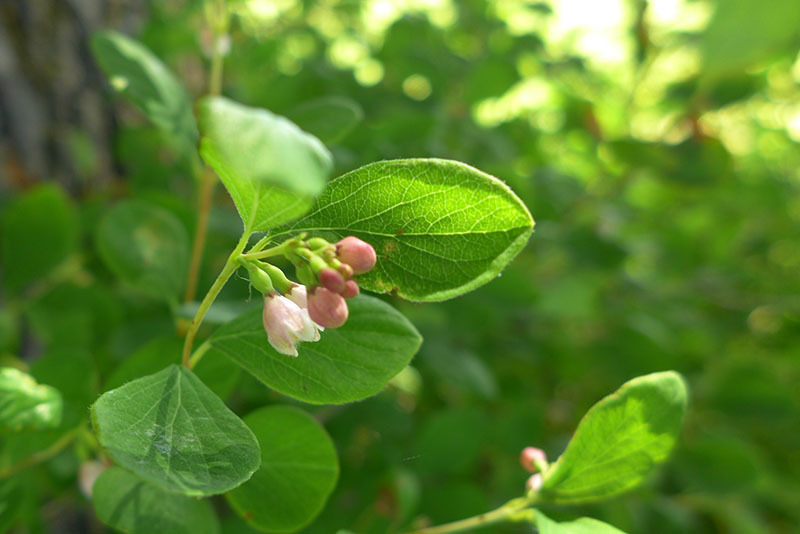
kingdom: Plantae
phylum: Tracheophyta
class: Magnoliopsida
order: Dipsacales
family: Caprifoliaceae
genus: Symphoricarpos
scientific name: Symphoricarpos albus
